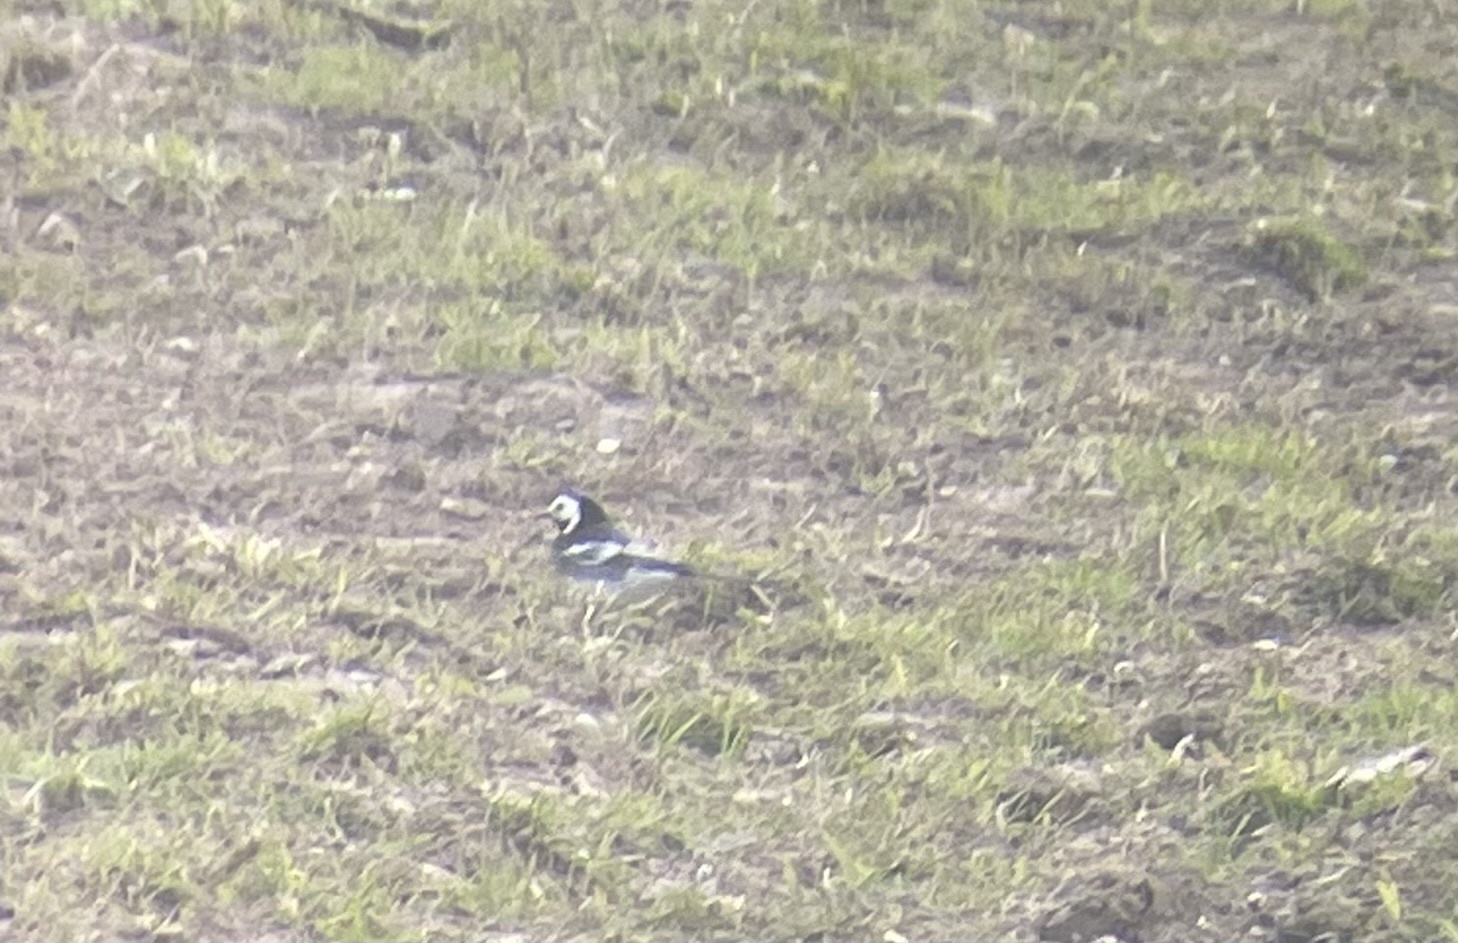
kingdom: Animalia
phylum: Chordata
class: Aves
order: Passeriformes
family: Motacillidae
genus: Motacilla
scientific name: Motacilla alba
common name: White wagtail
